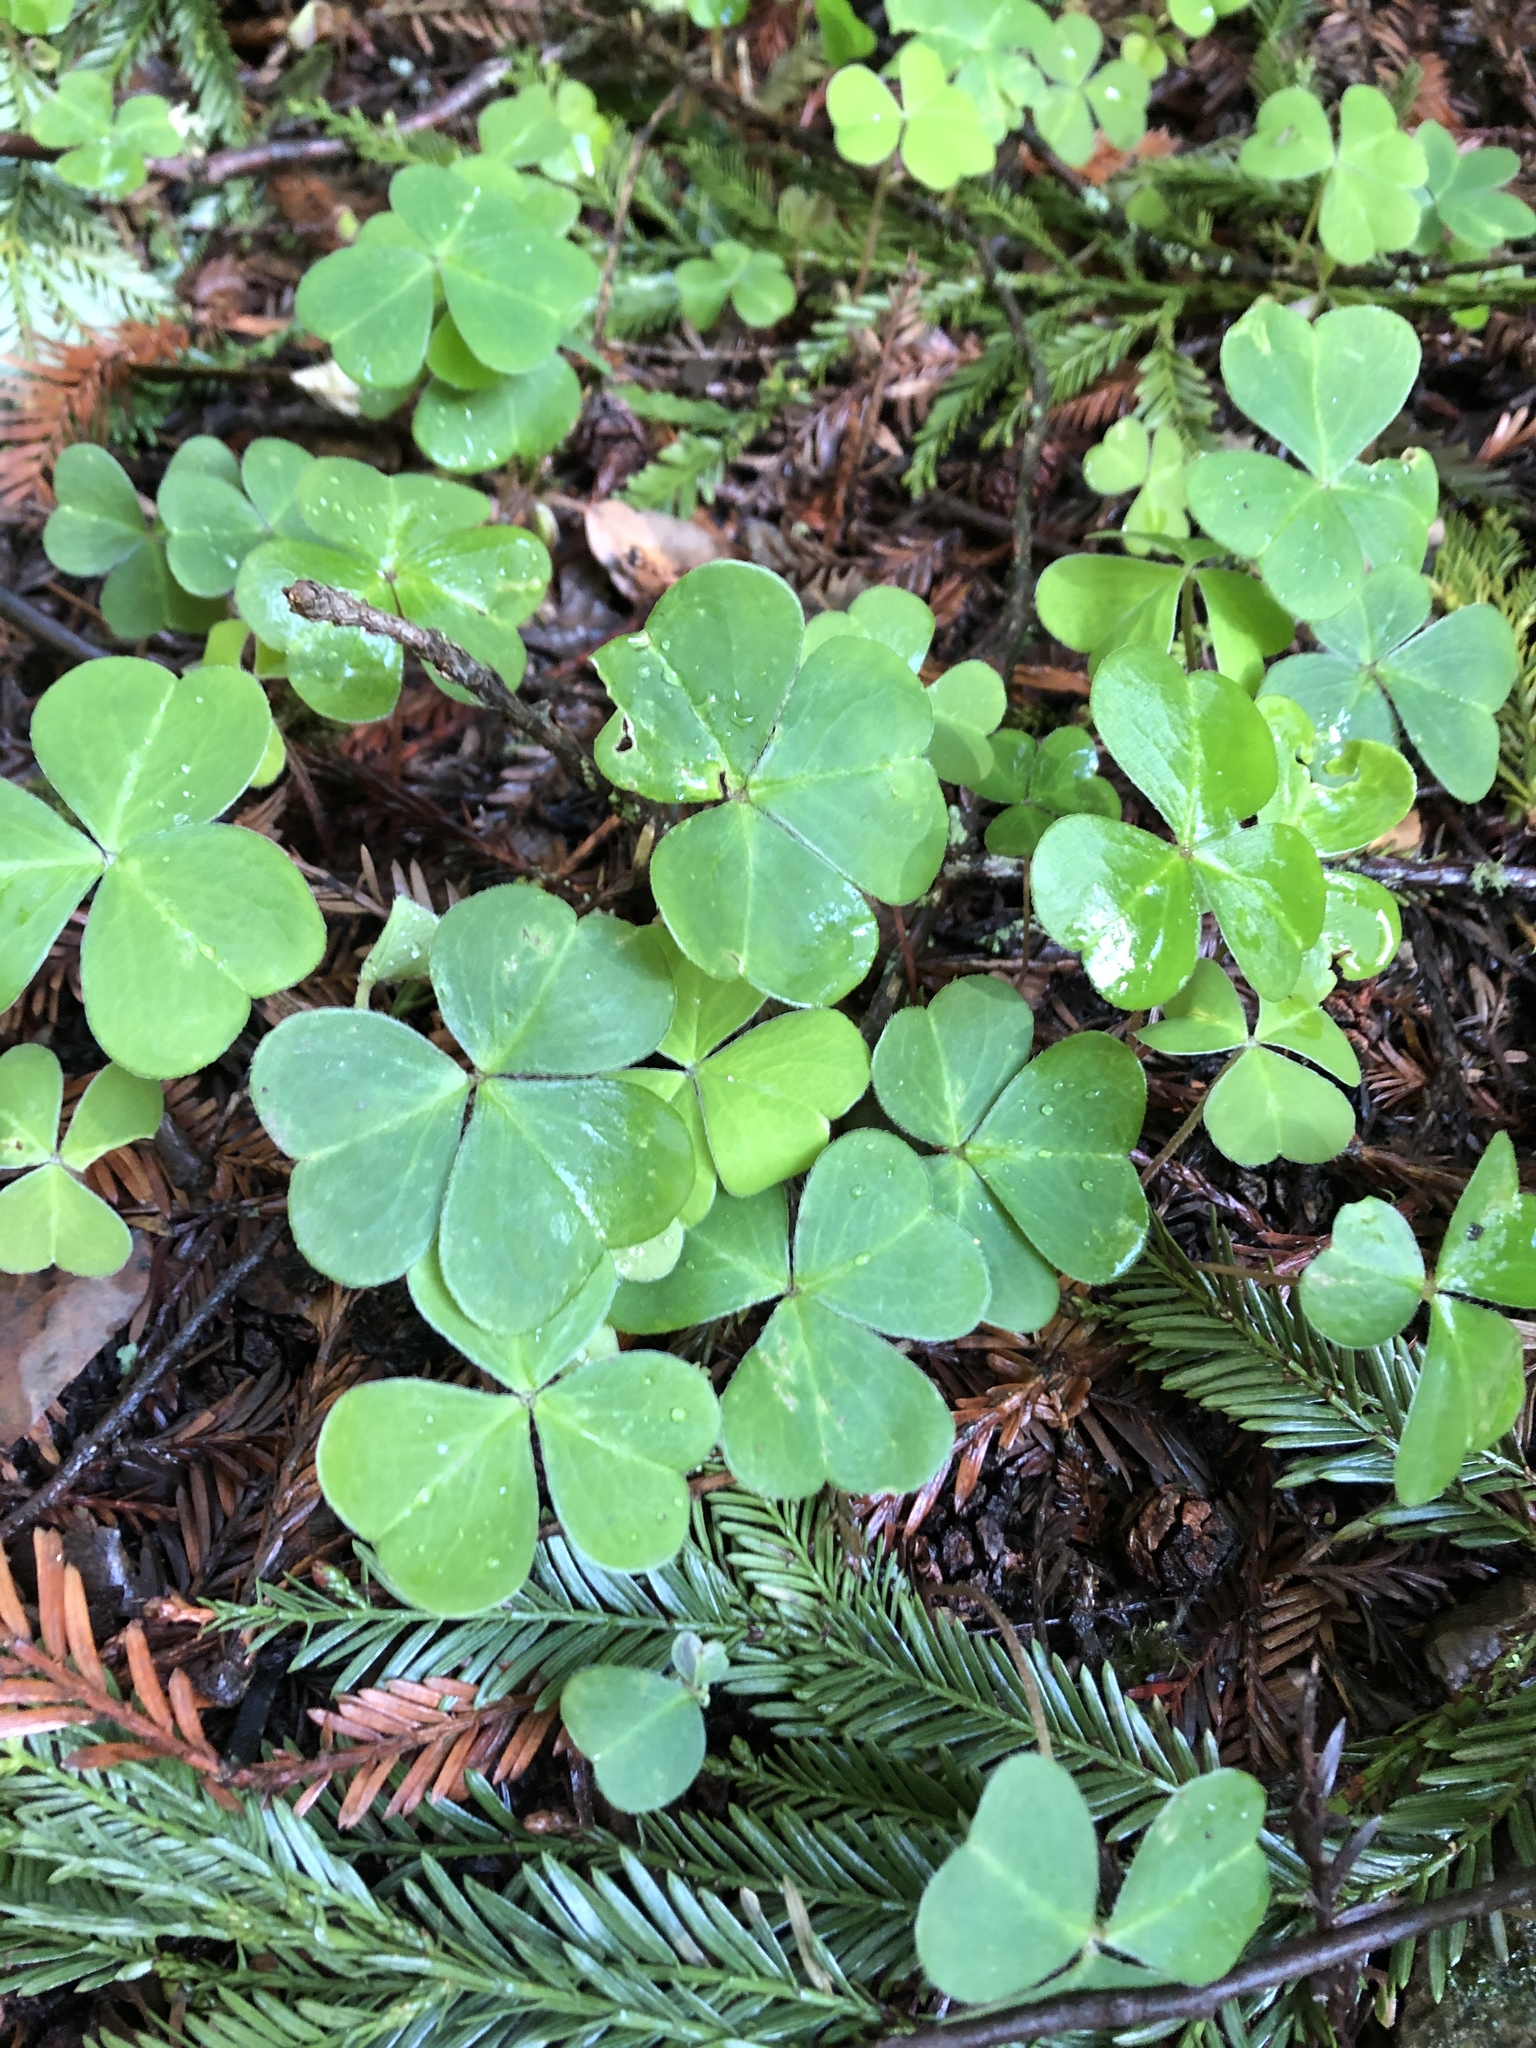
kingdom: Plantae
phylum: Tracheophyta
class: Magnoliopsida
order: Oxalidales
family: Oxalidaceae
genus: Oxalis
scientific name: Oxalis oregana
